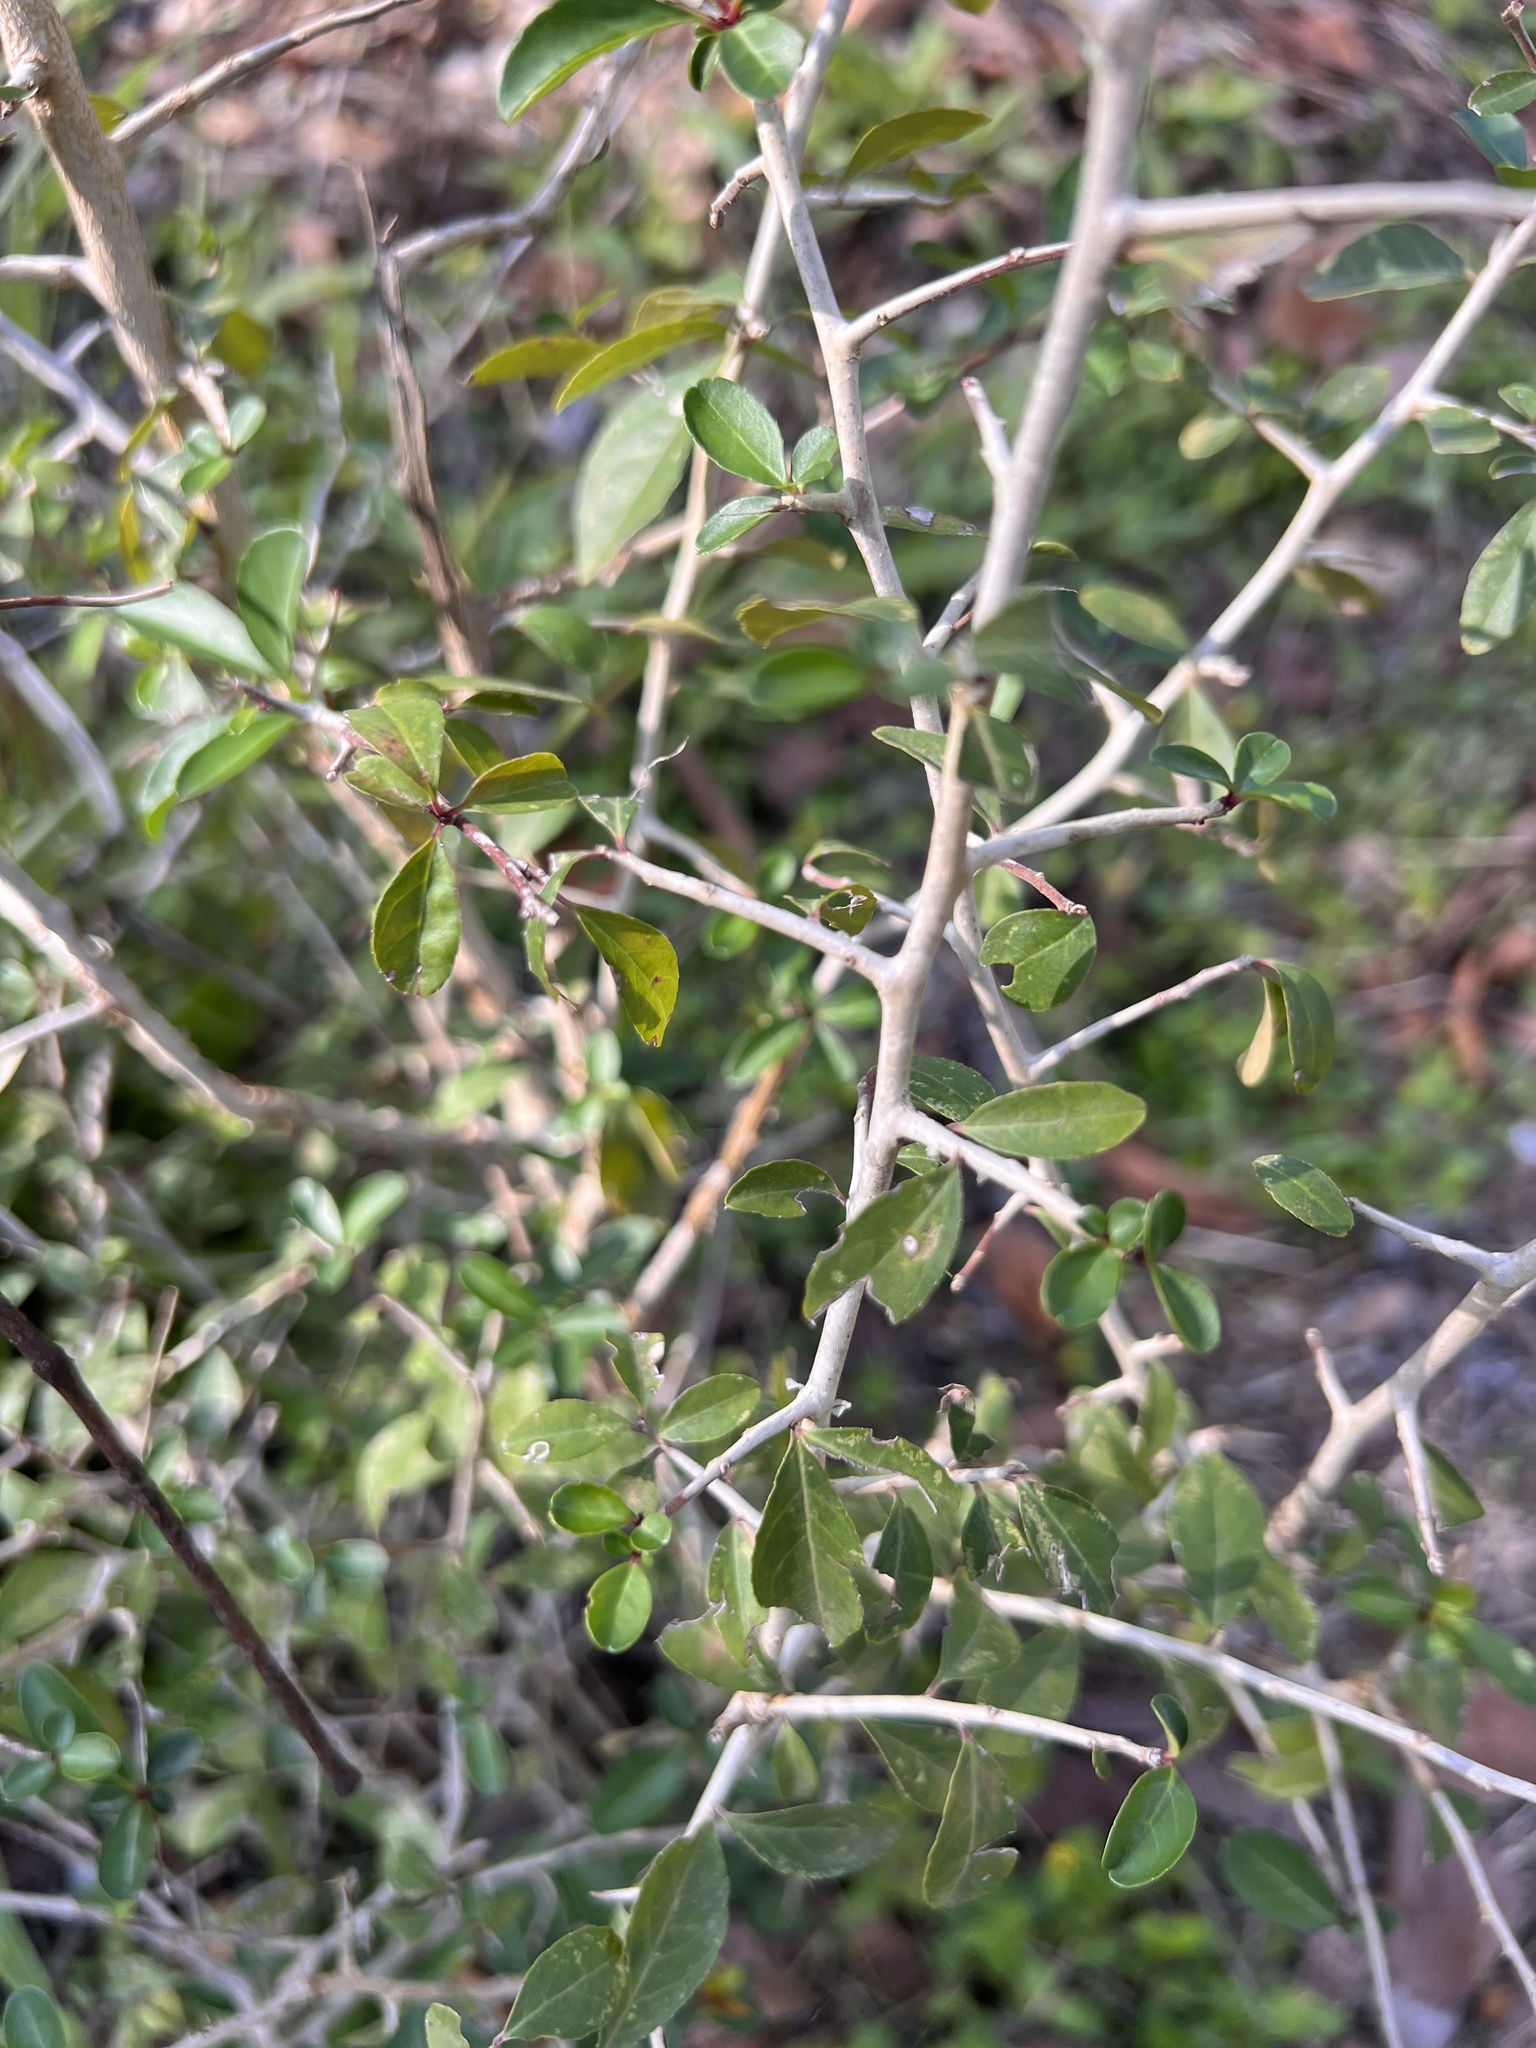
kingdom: Plantae
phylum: Tracheophyta
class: Magnoliopsida
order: Aquifoliales
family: Aquifoliaceae
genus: Ilex
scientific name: Ilex decidua
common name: Possum-haw
